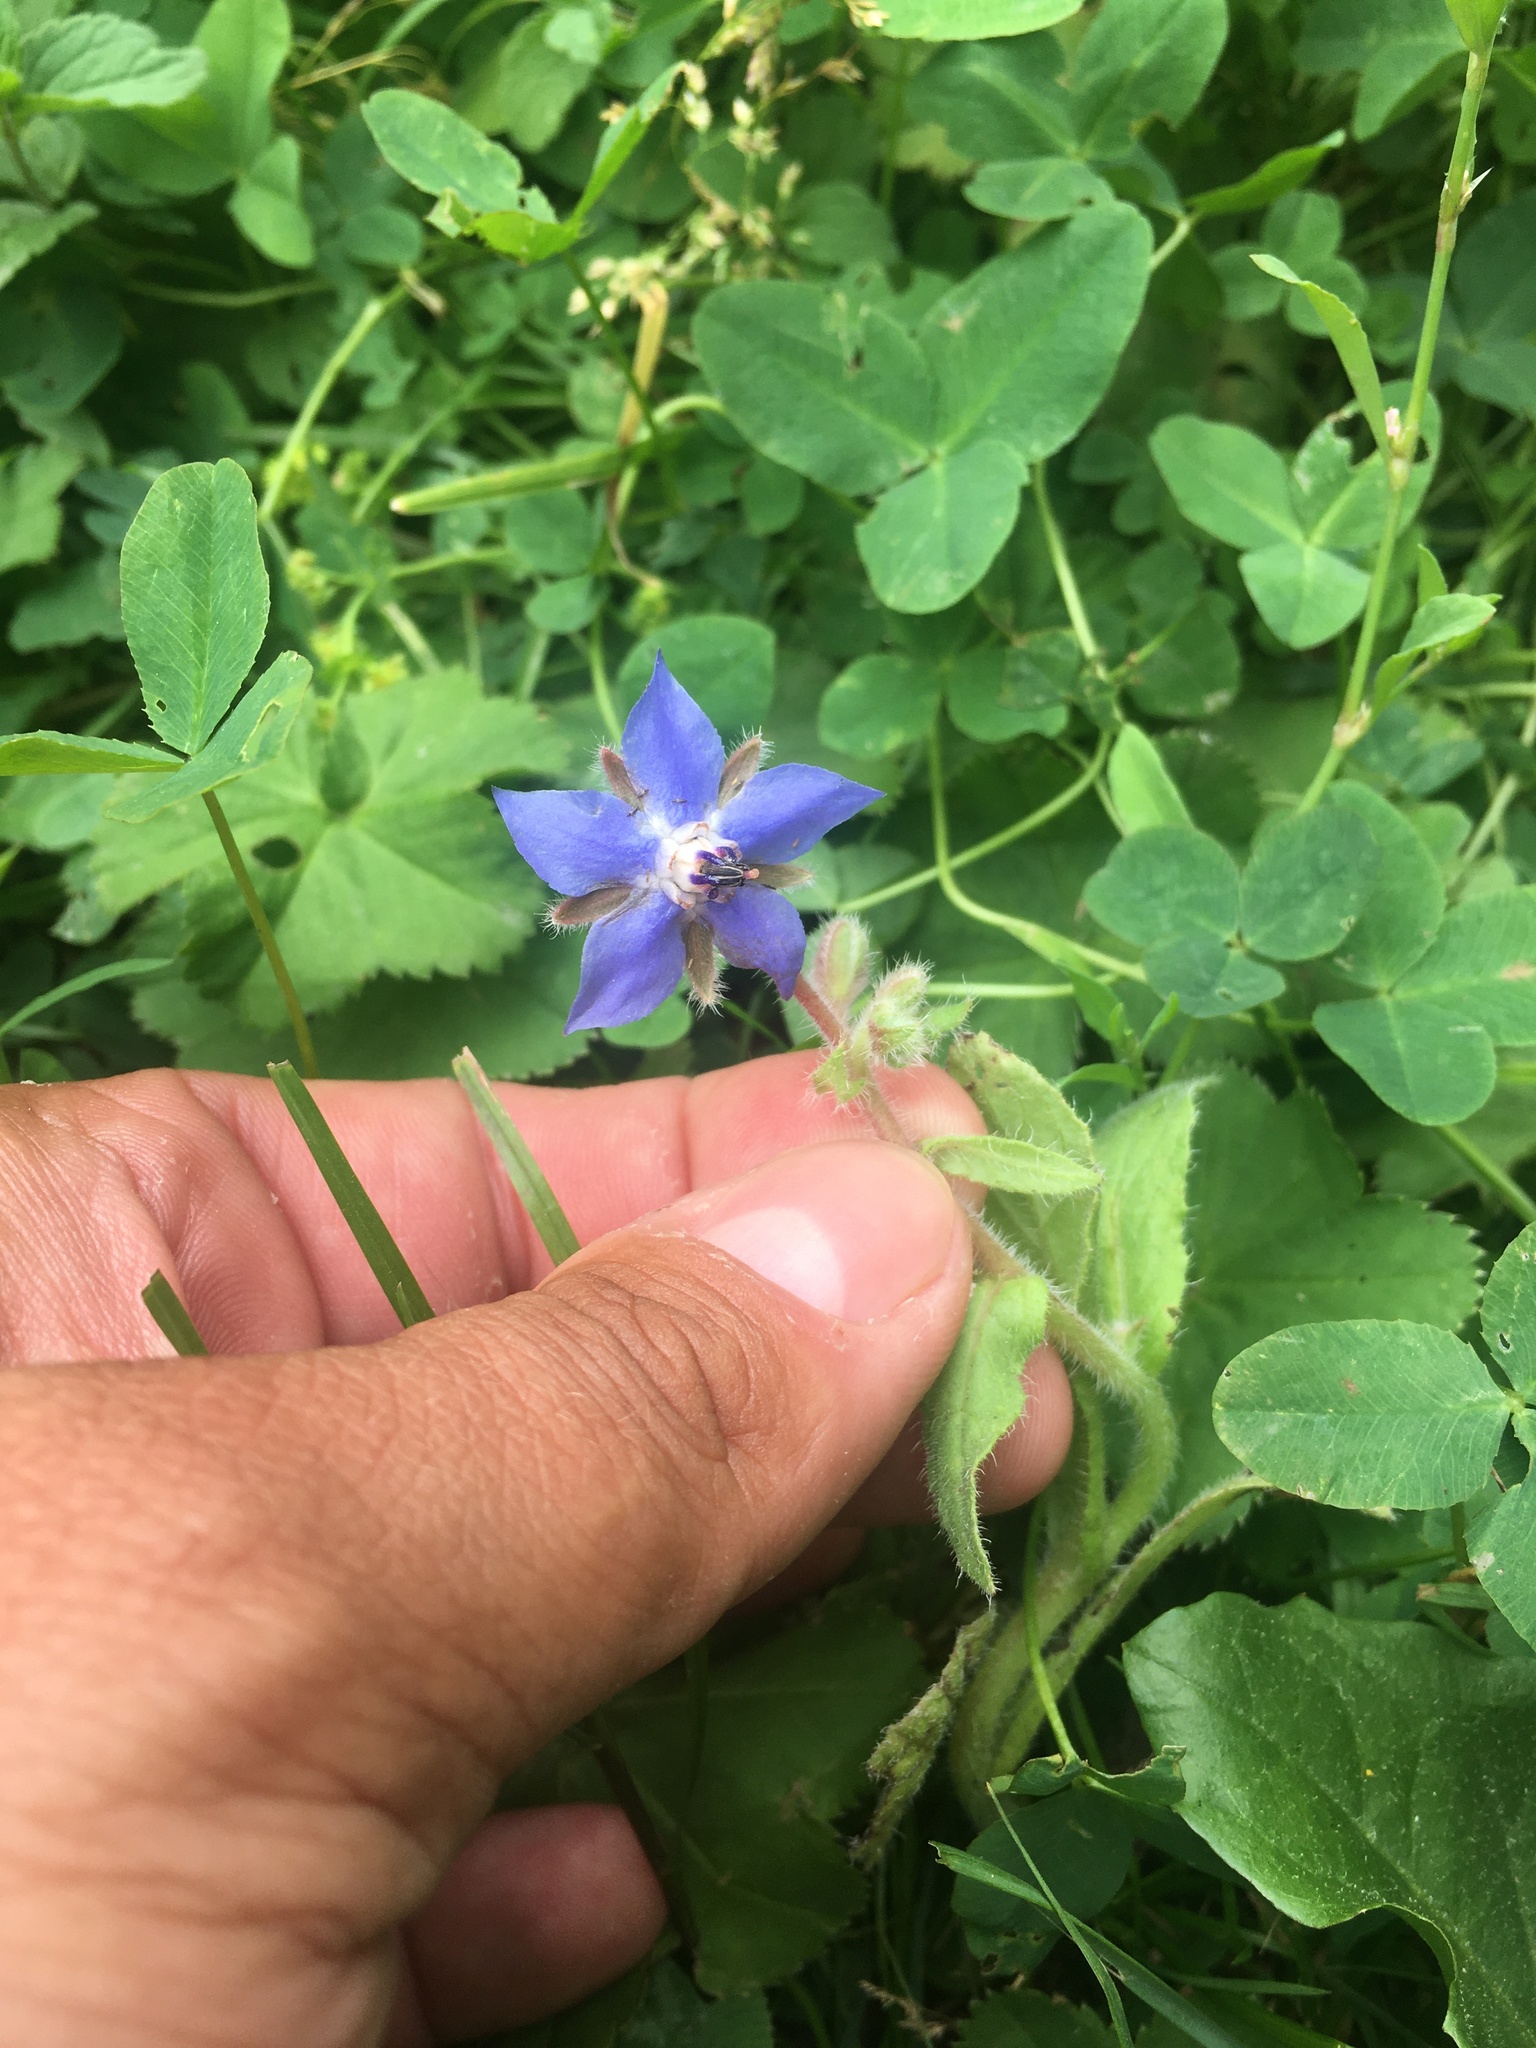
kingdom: Plantae
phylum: Tracheophyta
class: Magnoliopsida
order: Boraginales
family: Boraginaceae
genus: Borago
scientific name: Borago officinalis
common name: Borage
